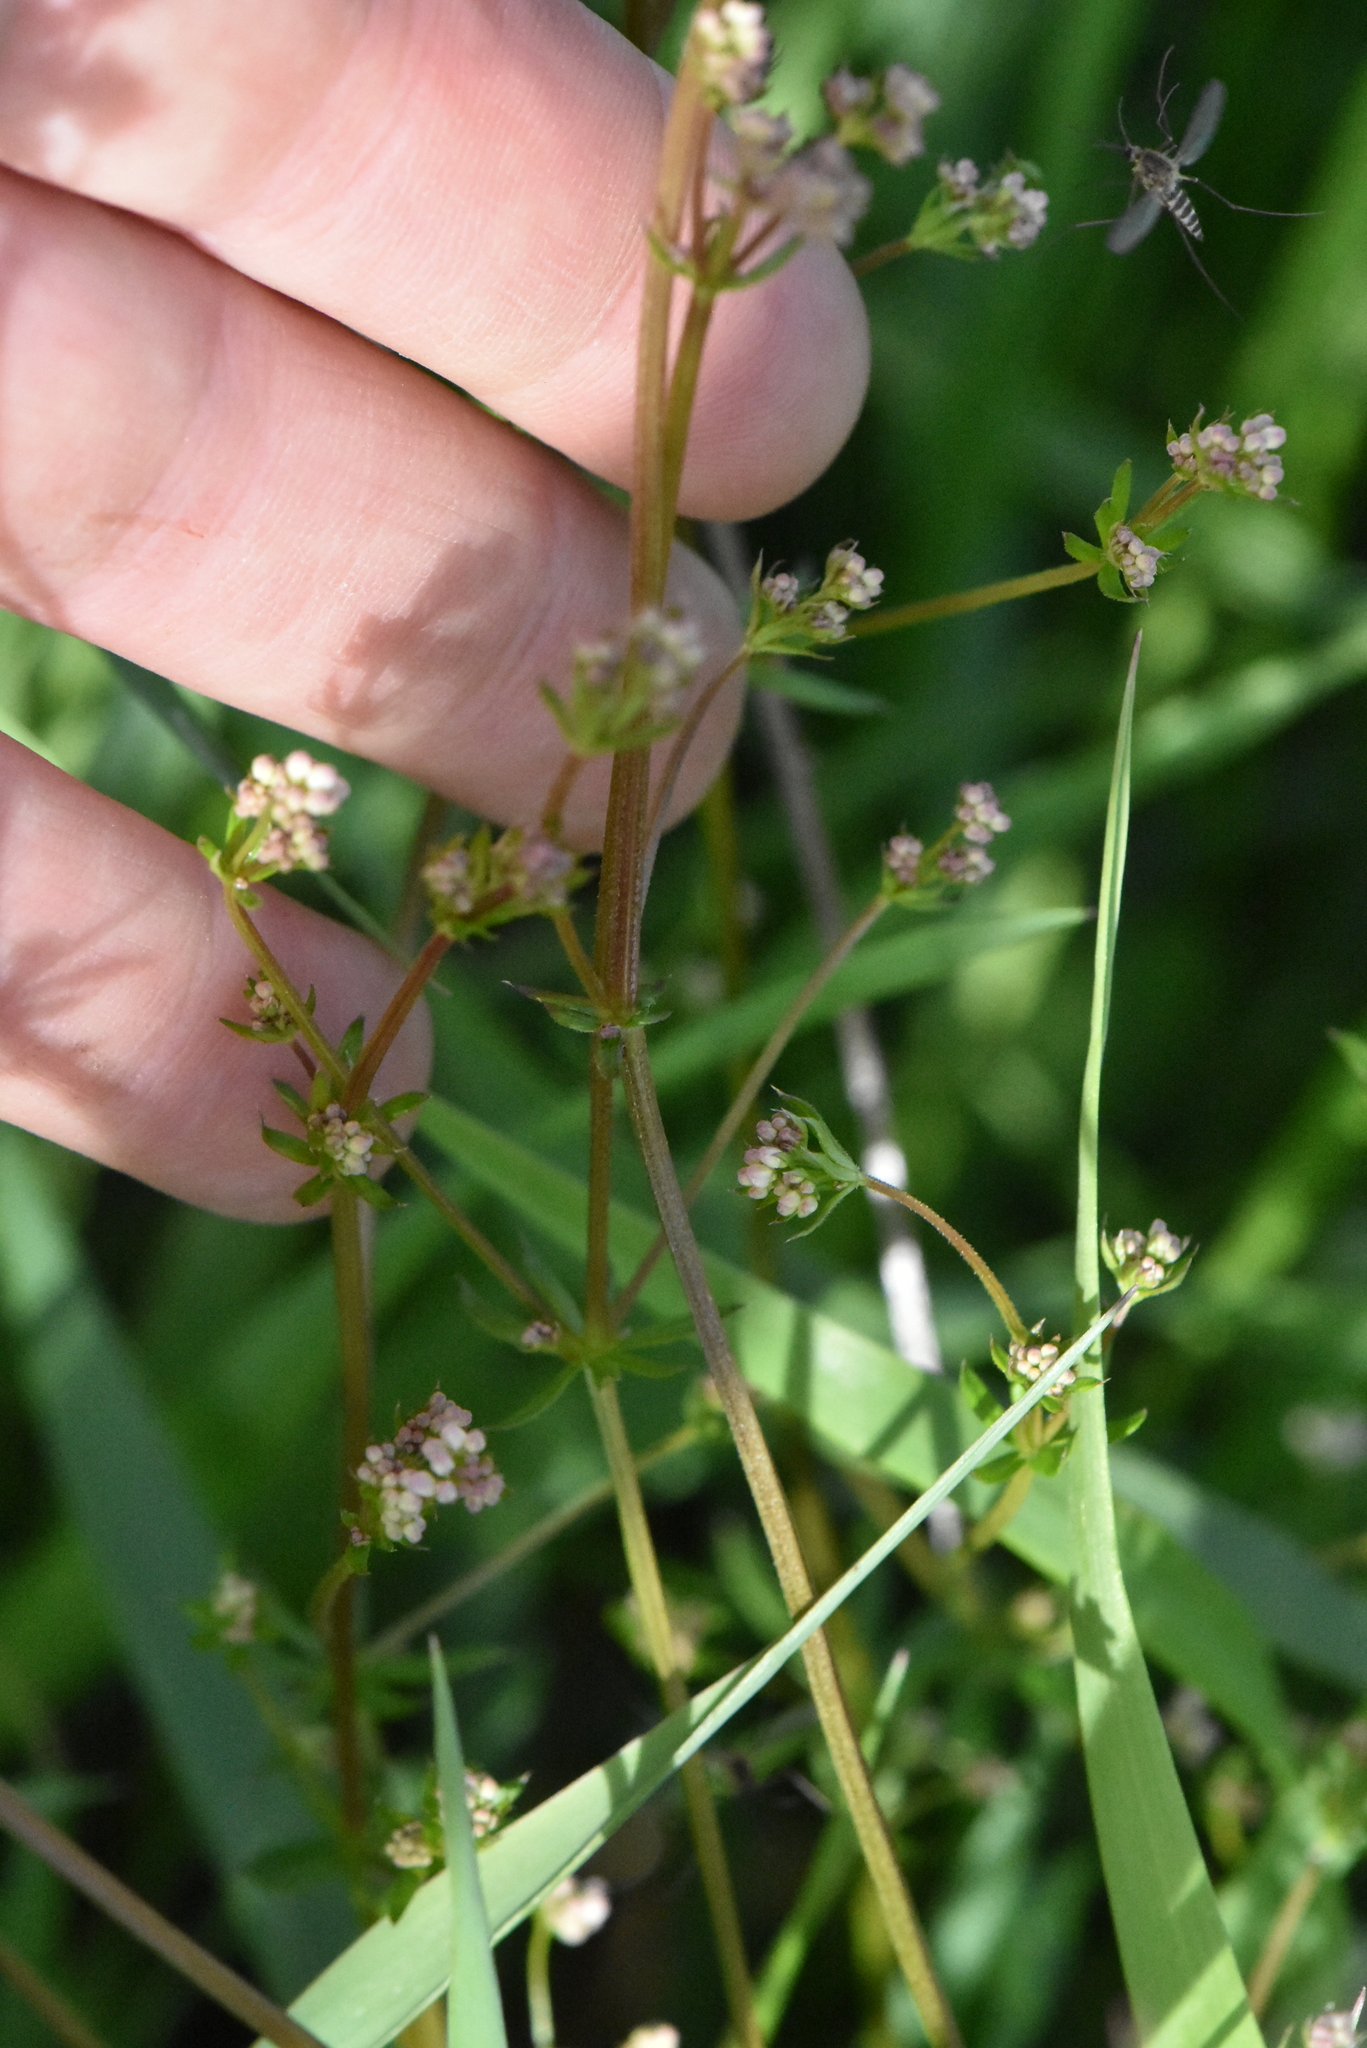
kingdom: Plantae
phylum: Tracheophyta
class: Magnoliopsida
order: Gentianales
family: Rubiaceae
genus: Galium
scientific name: Galium uliginosum
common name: Fen bedstraw
